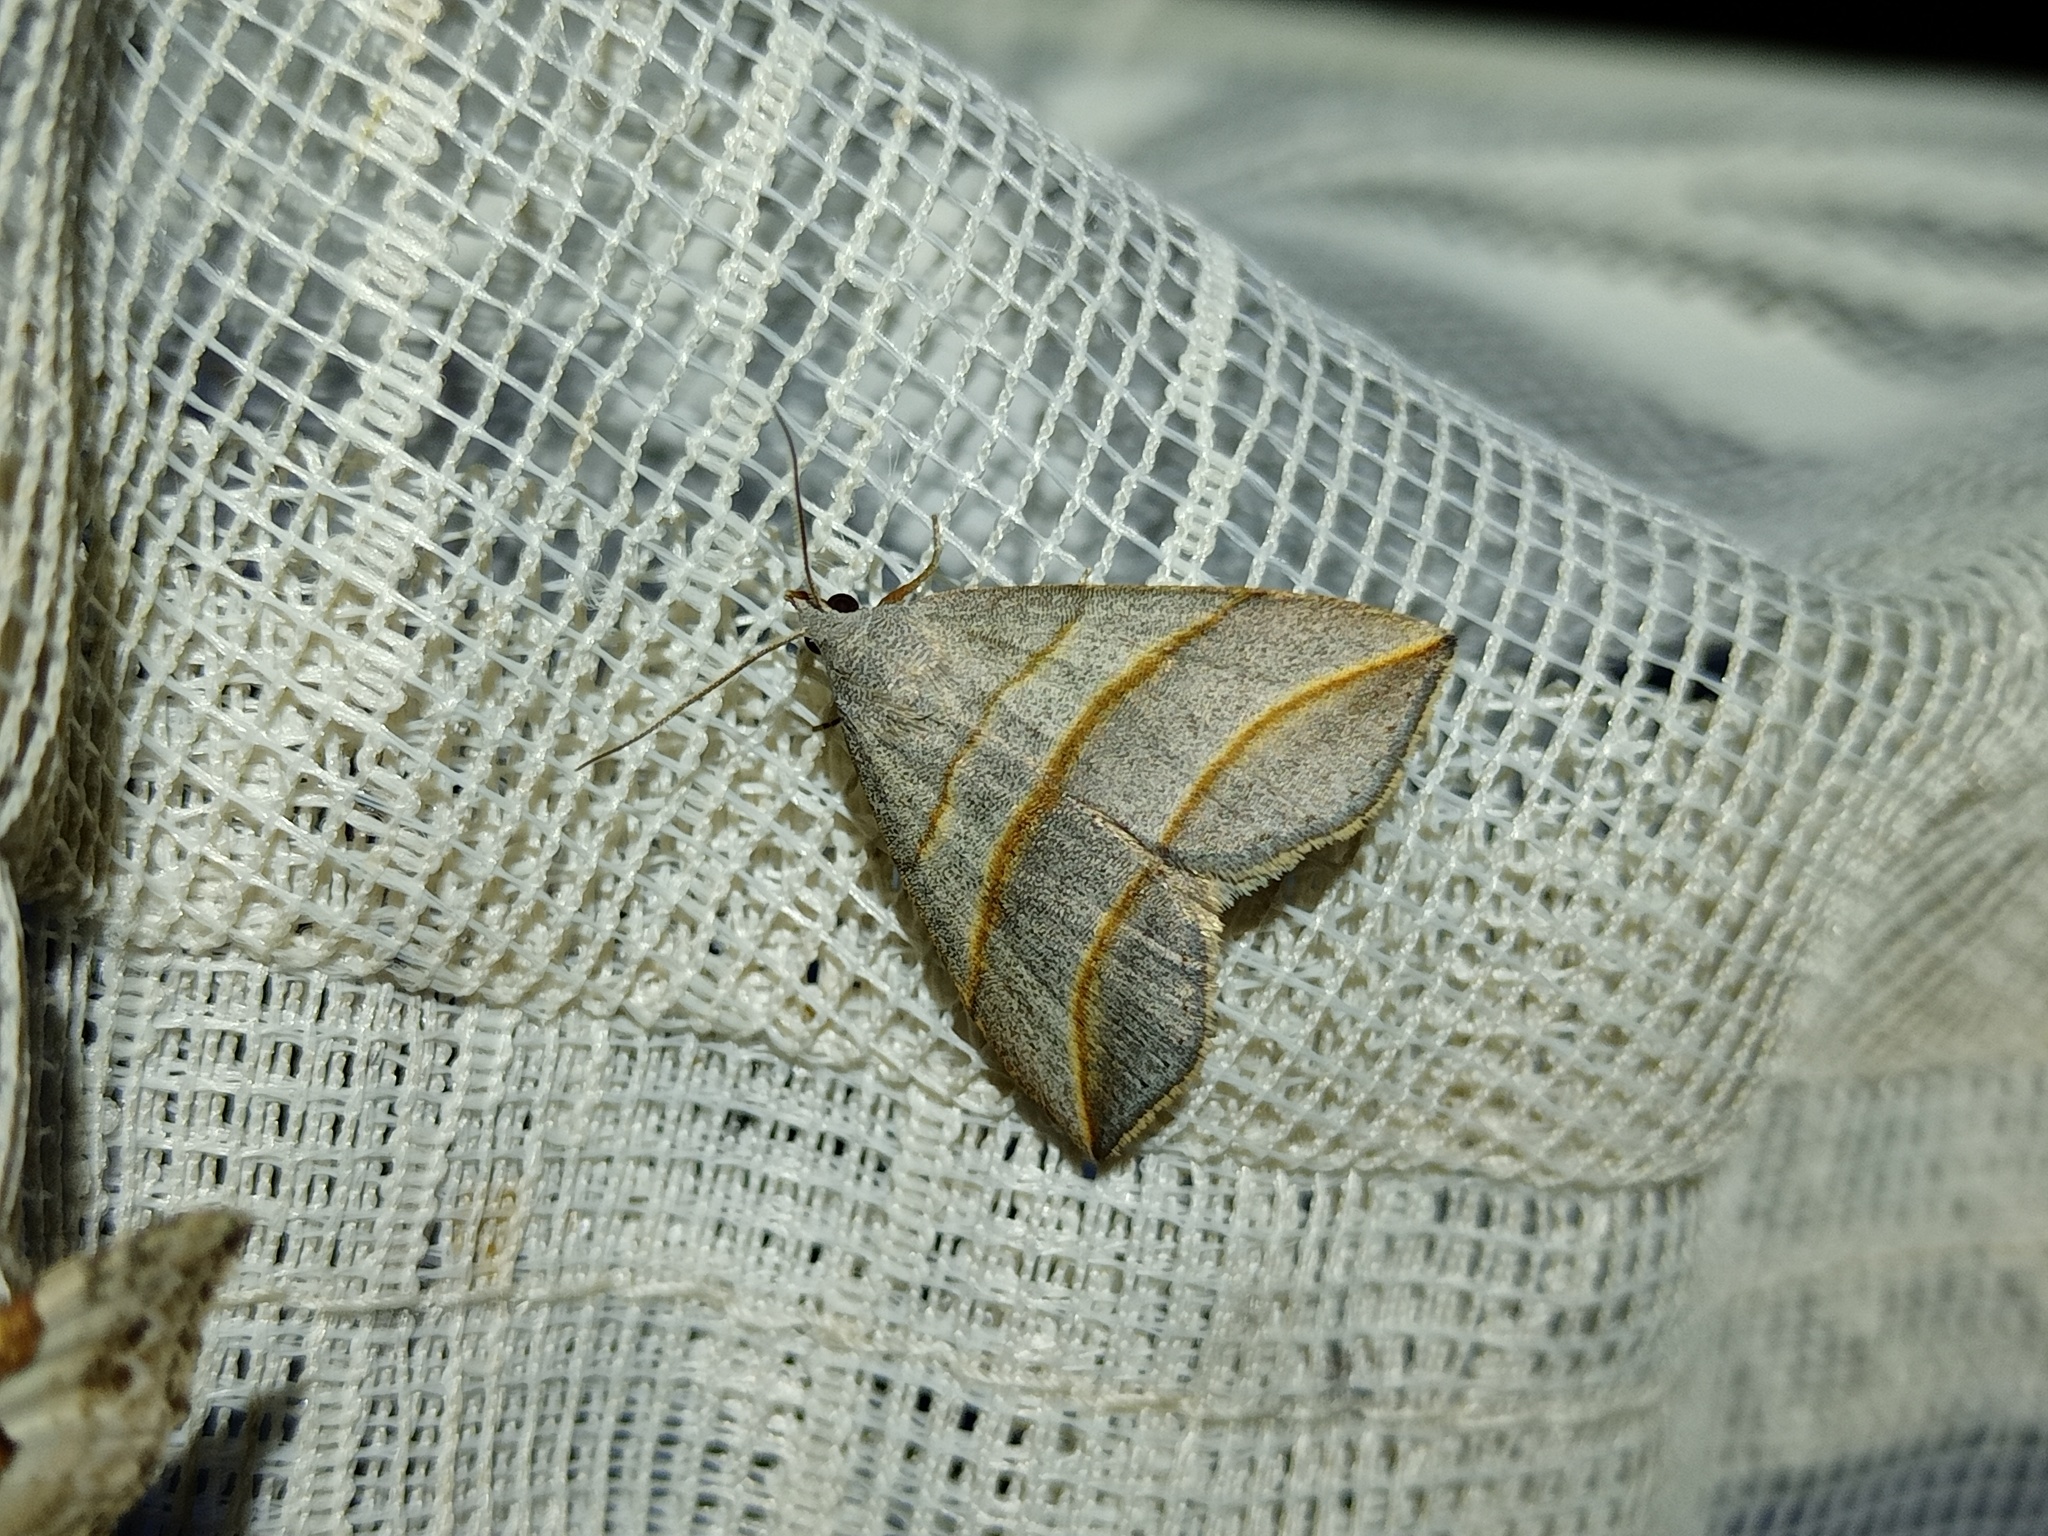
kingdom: Animalia
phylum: Arthropoda
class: Insecta
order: Lepidoptera
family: Erebidae
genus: Colobochyla
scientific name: Colobochyla salicalis
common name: Lesser belle
